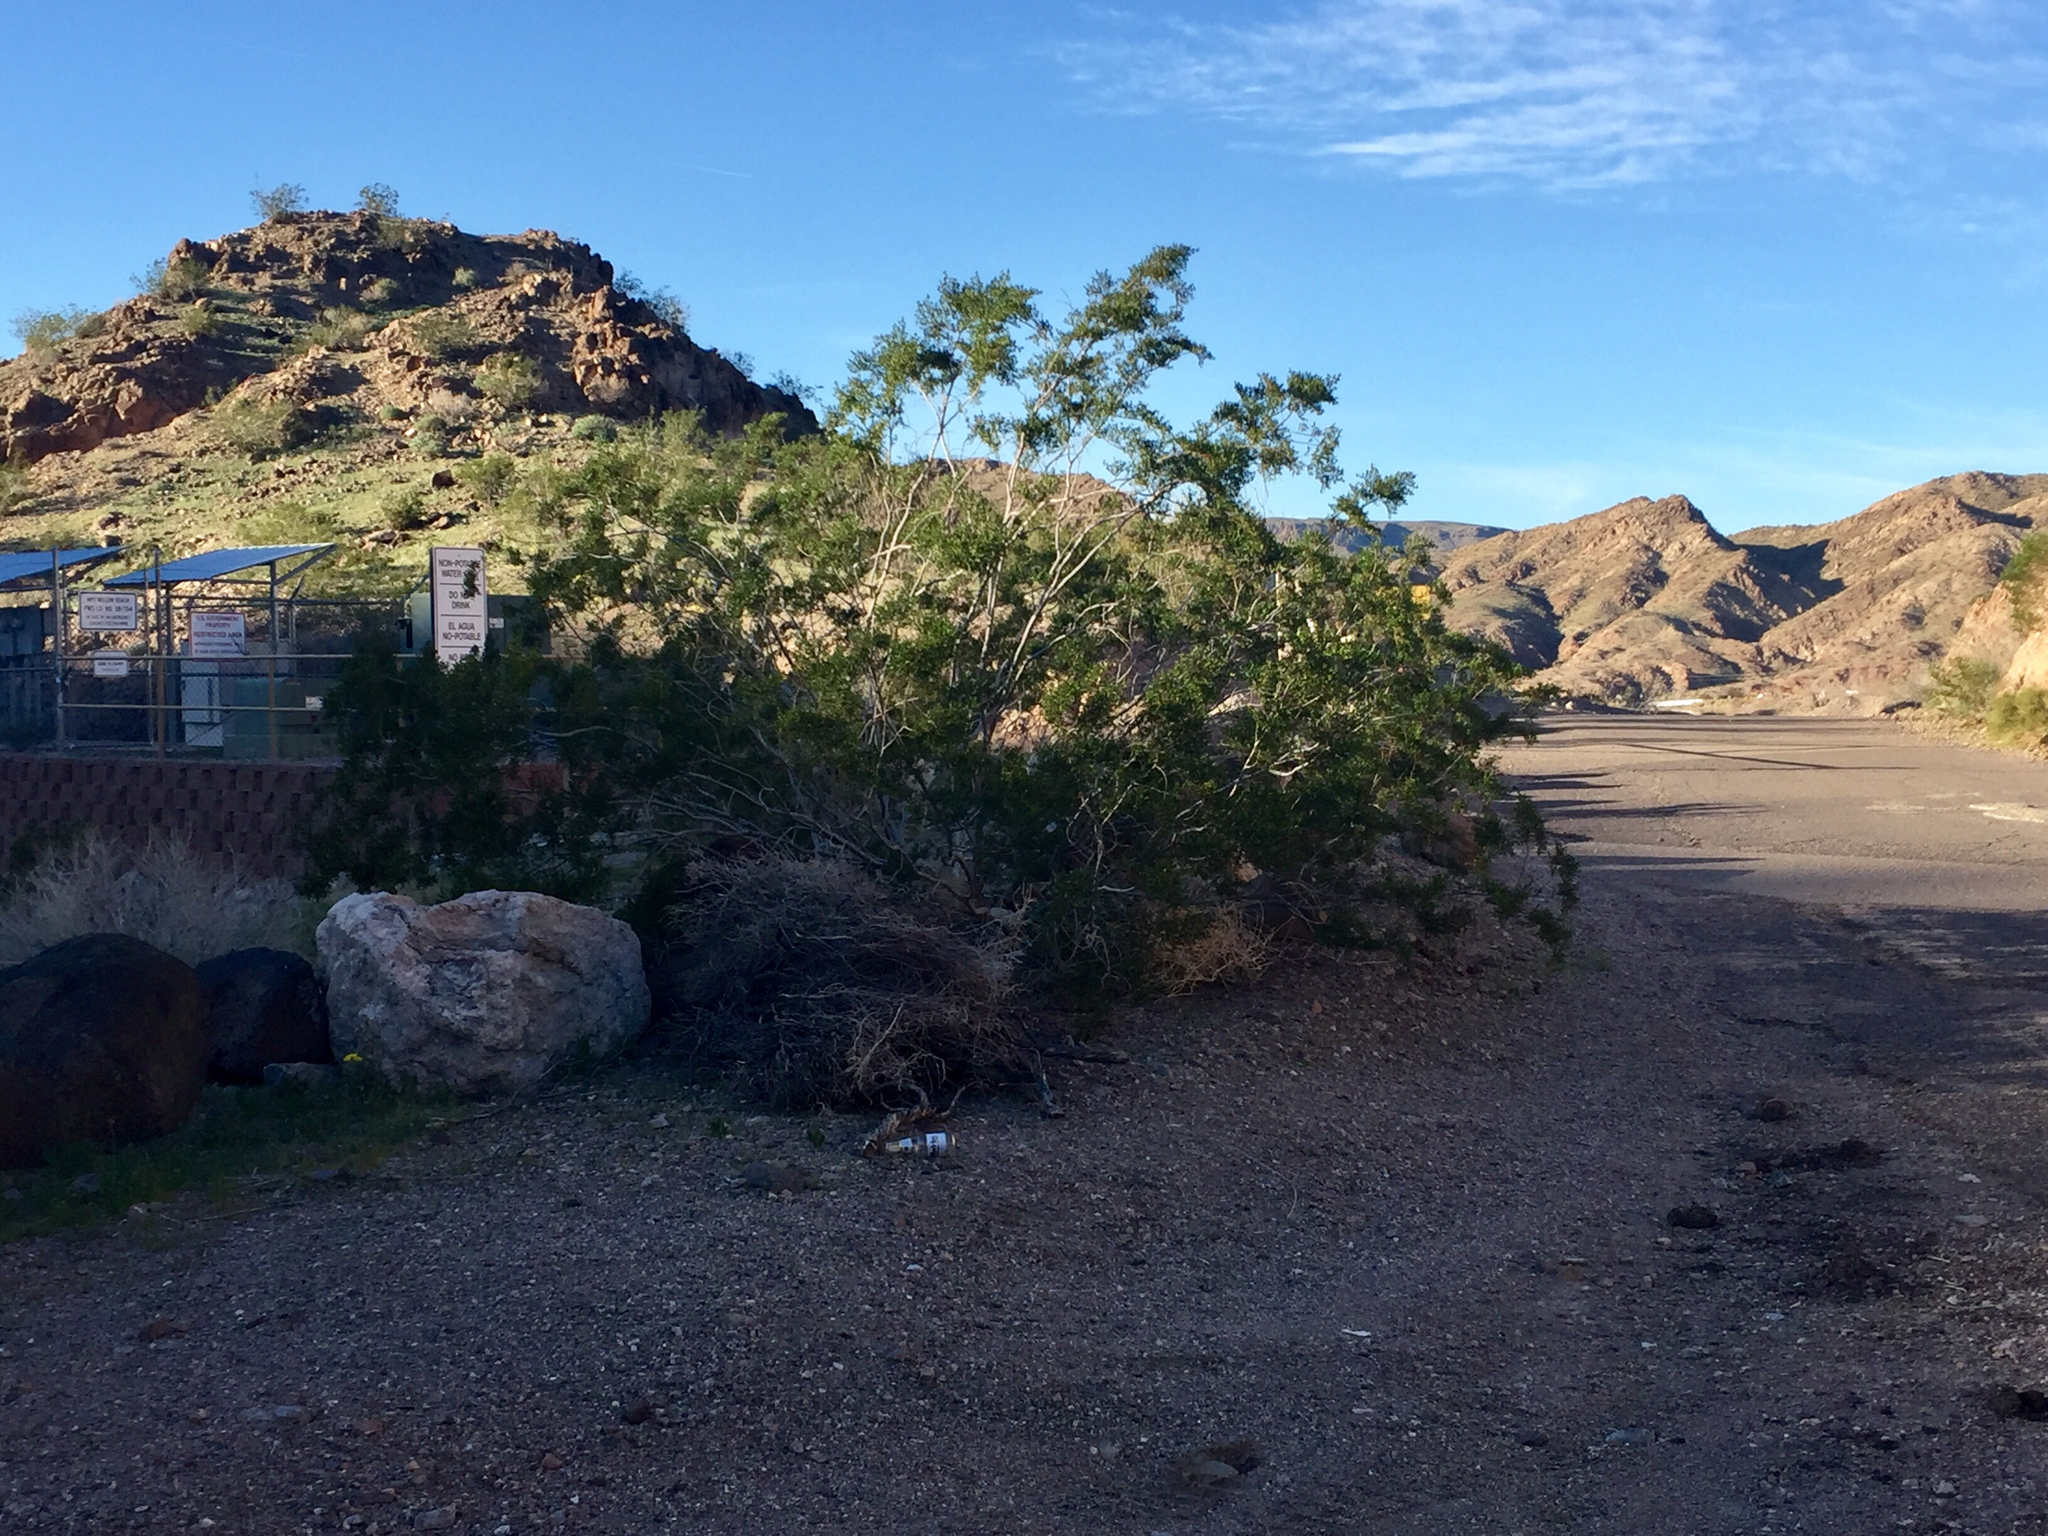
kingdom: Plantae
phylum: Tracheophyta
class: Magnoliopsida
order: Zygophyllales
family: Zygophyllaceae
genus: Larrea
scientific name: Larrea tridentata
